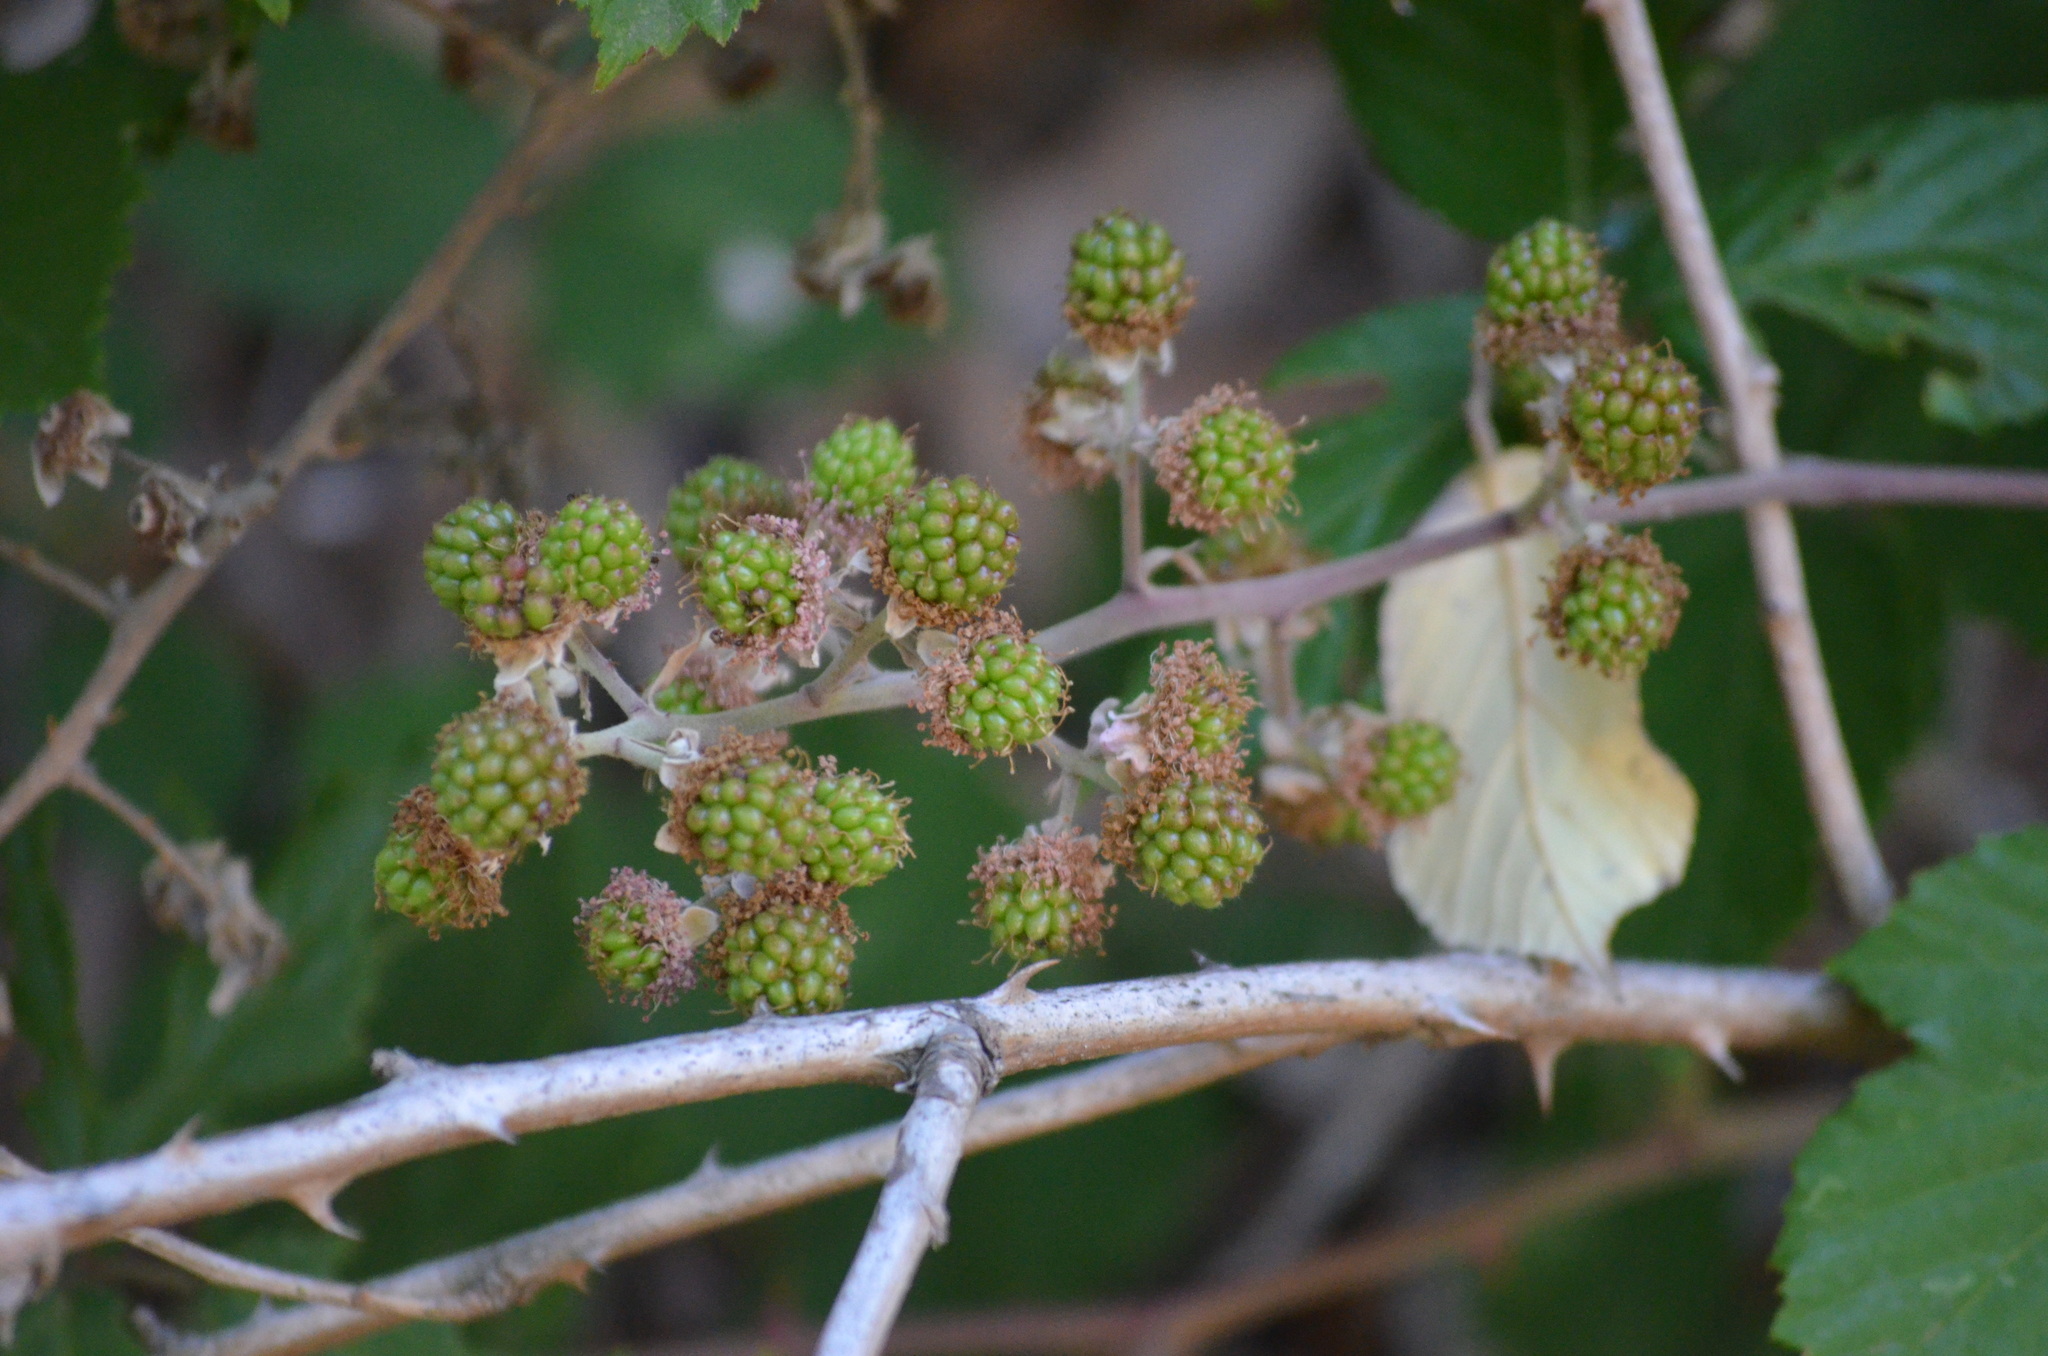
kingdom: Plantae
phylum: Tracheophyta
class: Magnoliopsida
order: Rosales
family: Rosaceae
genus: Rubus
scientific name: Rubus ulmifolius
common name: Elmleaf blackberry
